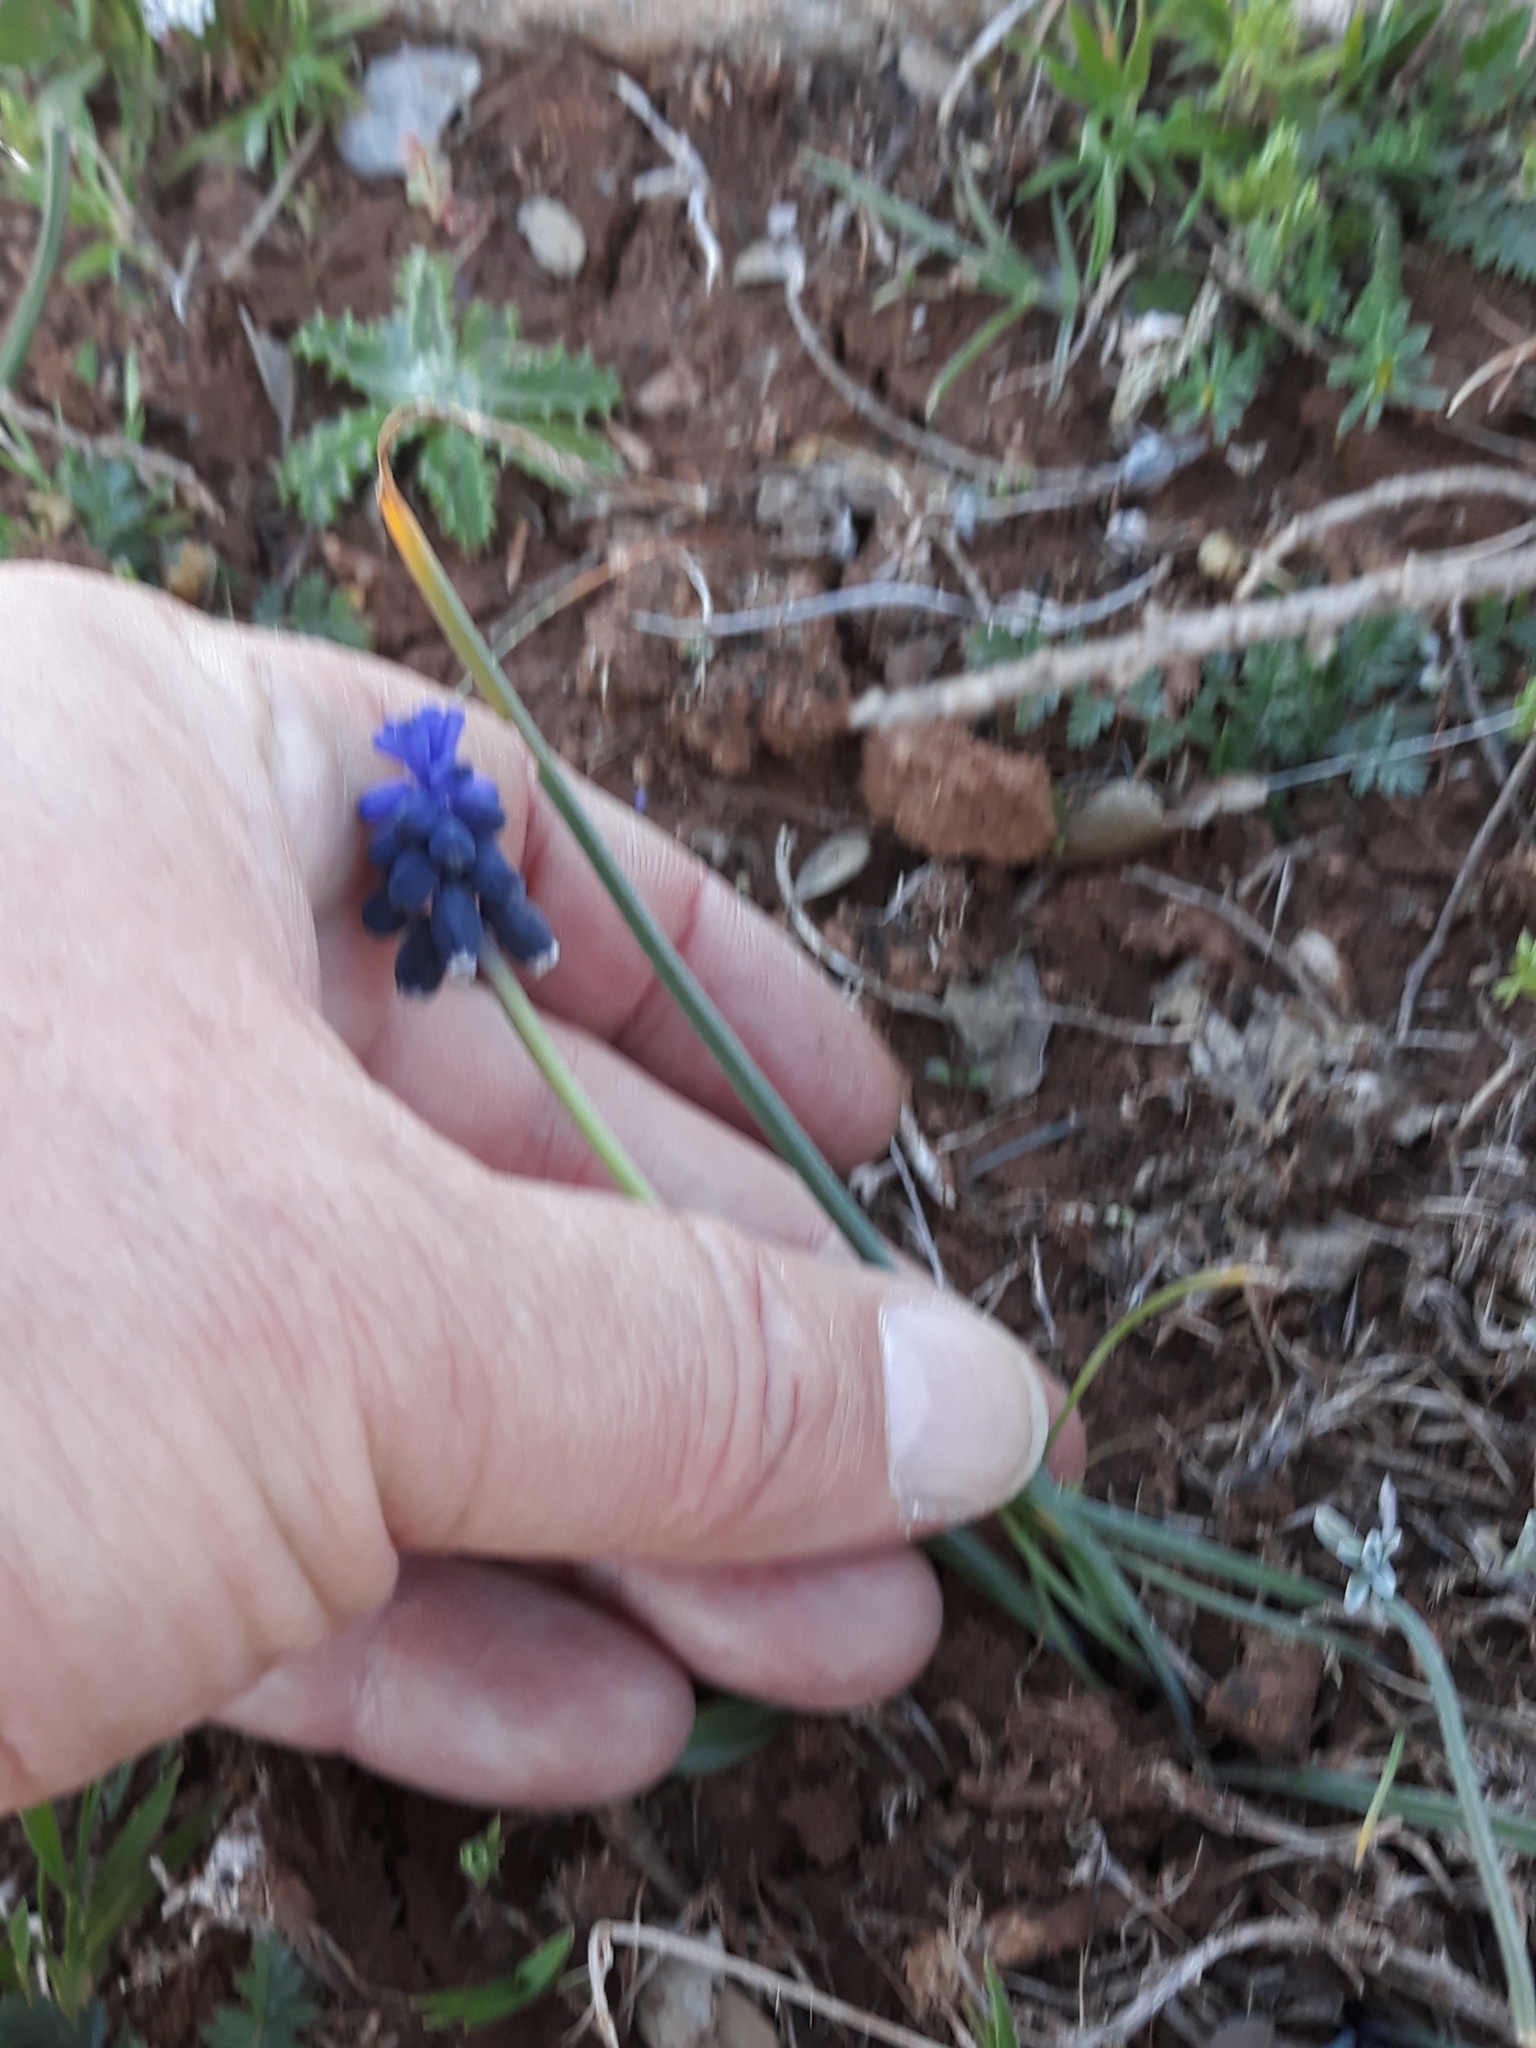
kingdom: Plantae
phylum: Tracheophyta
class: Liliopsida
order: Asparagales
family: Asparagaceae
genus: Muscari
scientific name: Muscari neglectum
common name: Grape-hyacinth
